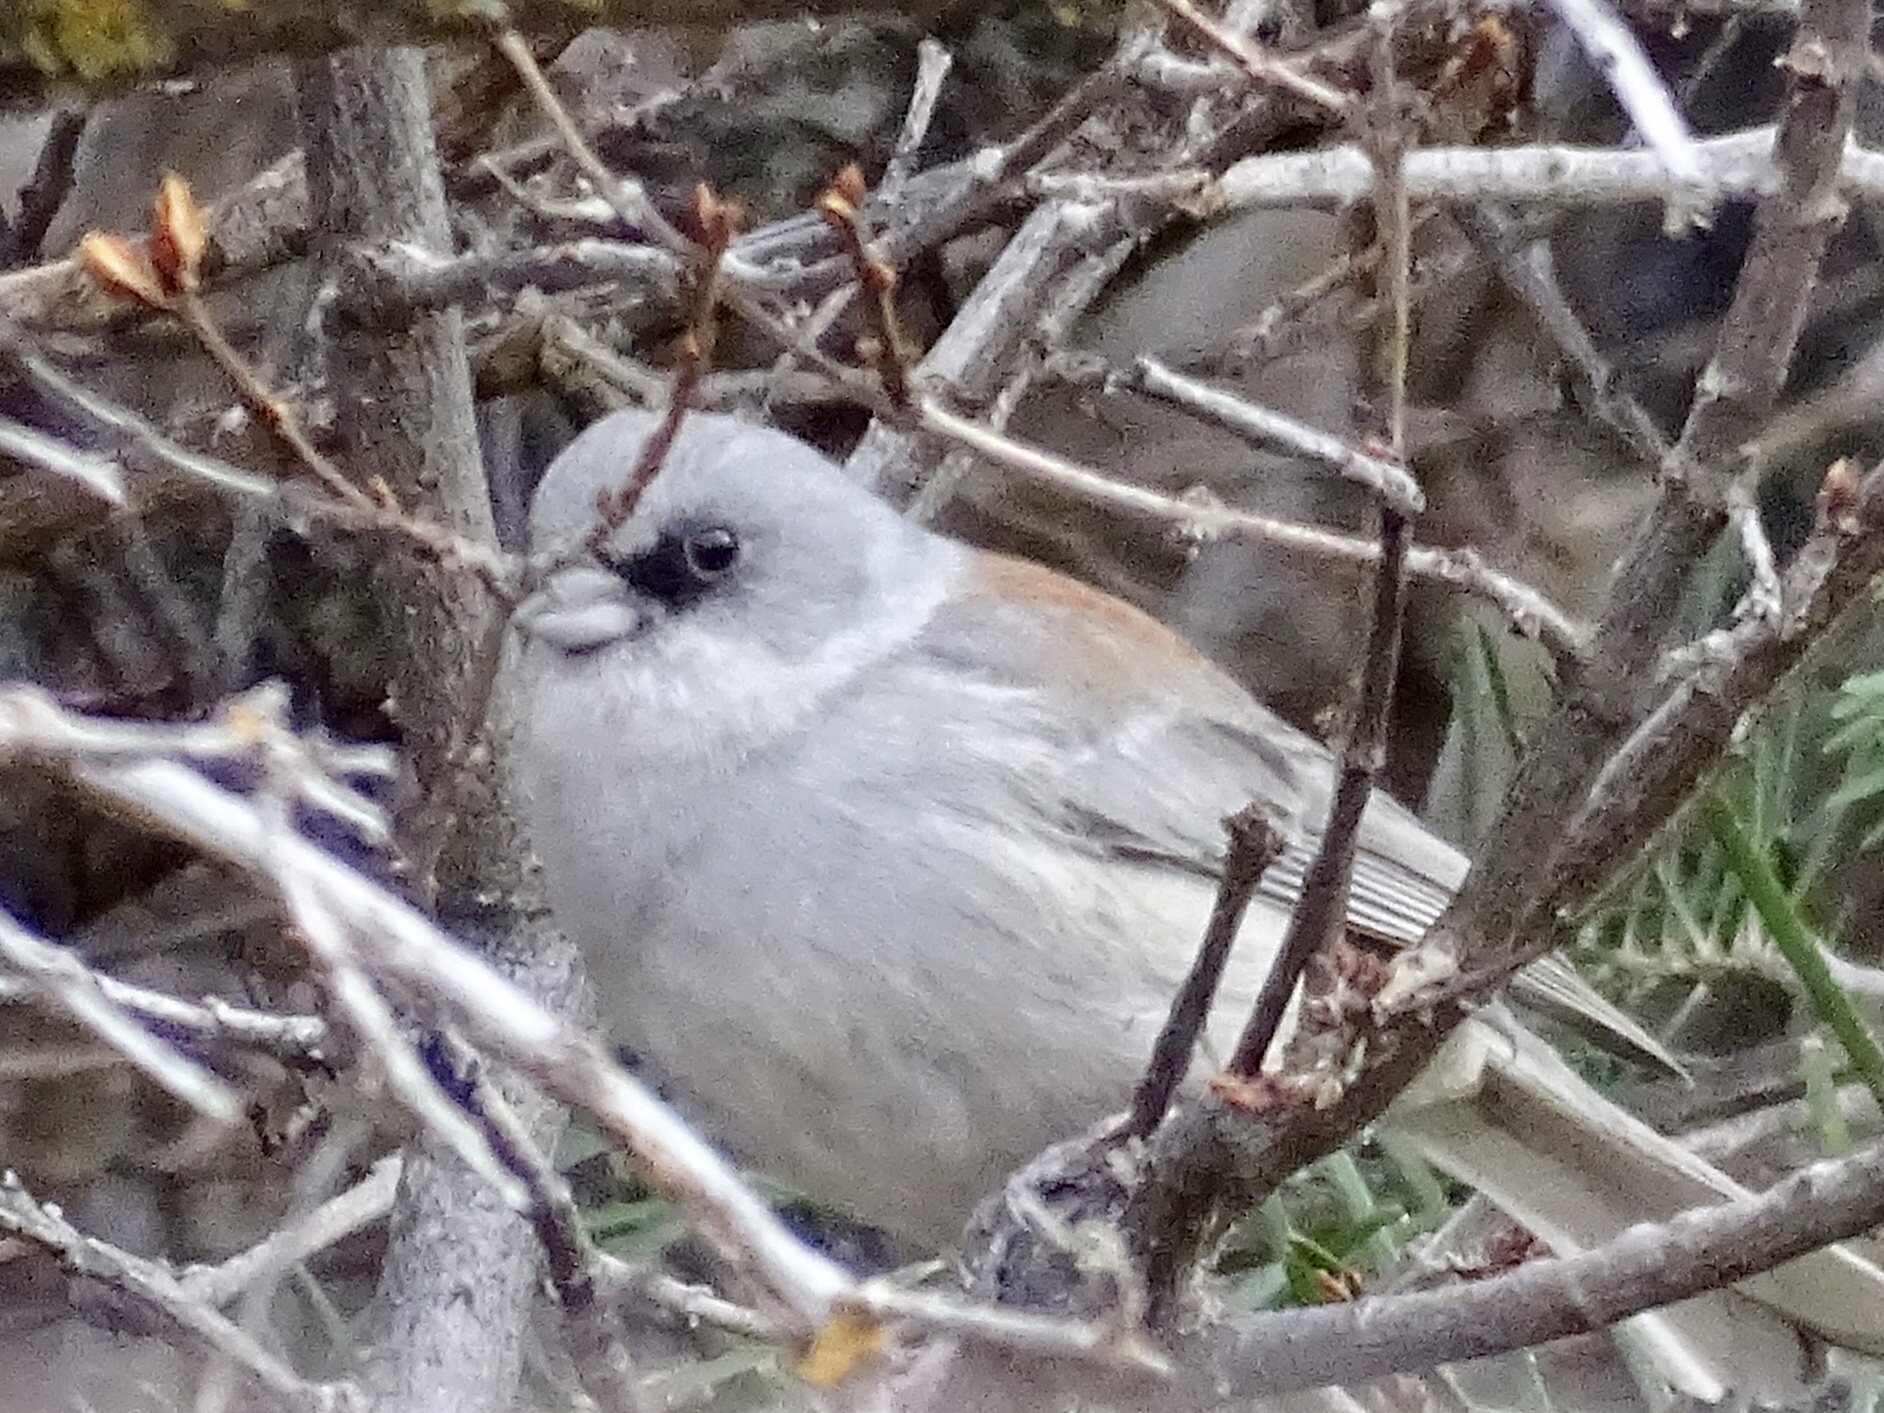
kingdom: Animalia
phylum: Chordata
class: Aves
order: Passeriformes
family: Passerellidae
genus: Junco
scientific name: Junco hyemalis
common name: Dark-eyed junco
